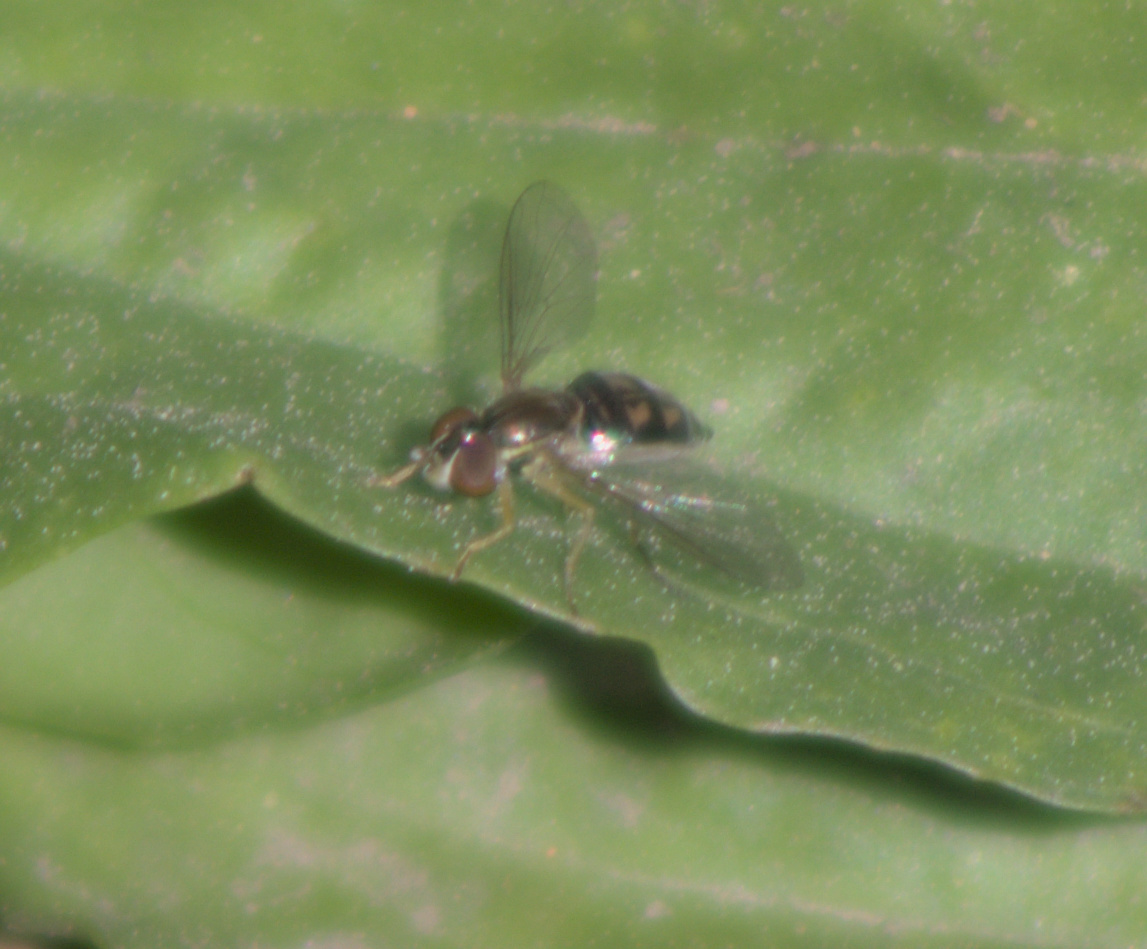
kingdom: Animalia
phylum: Arthropoda
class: Insecta
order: Diptera
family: Syrphidae
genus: Toxomerus
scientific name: Toxomerus marginatus
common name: Syrphid fly
